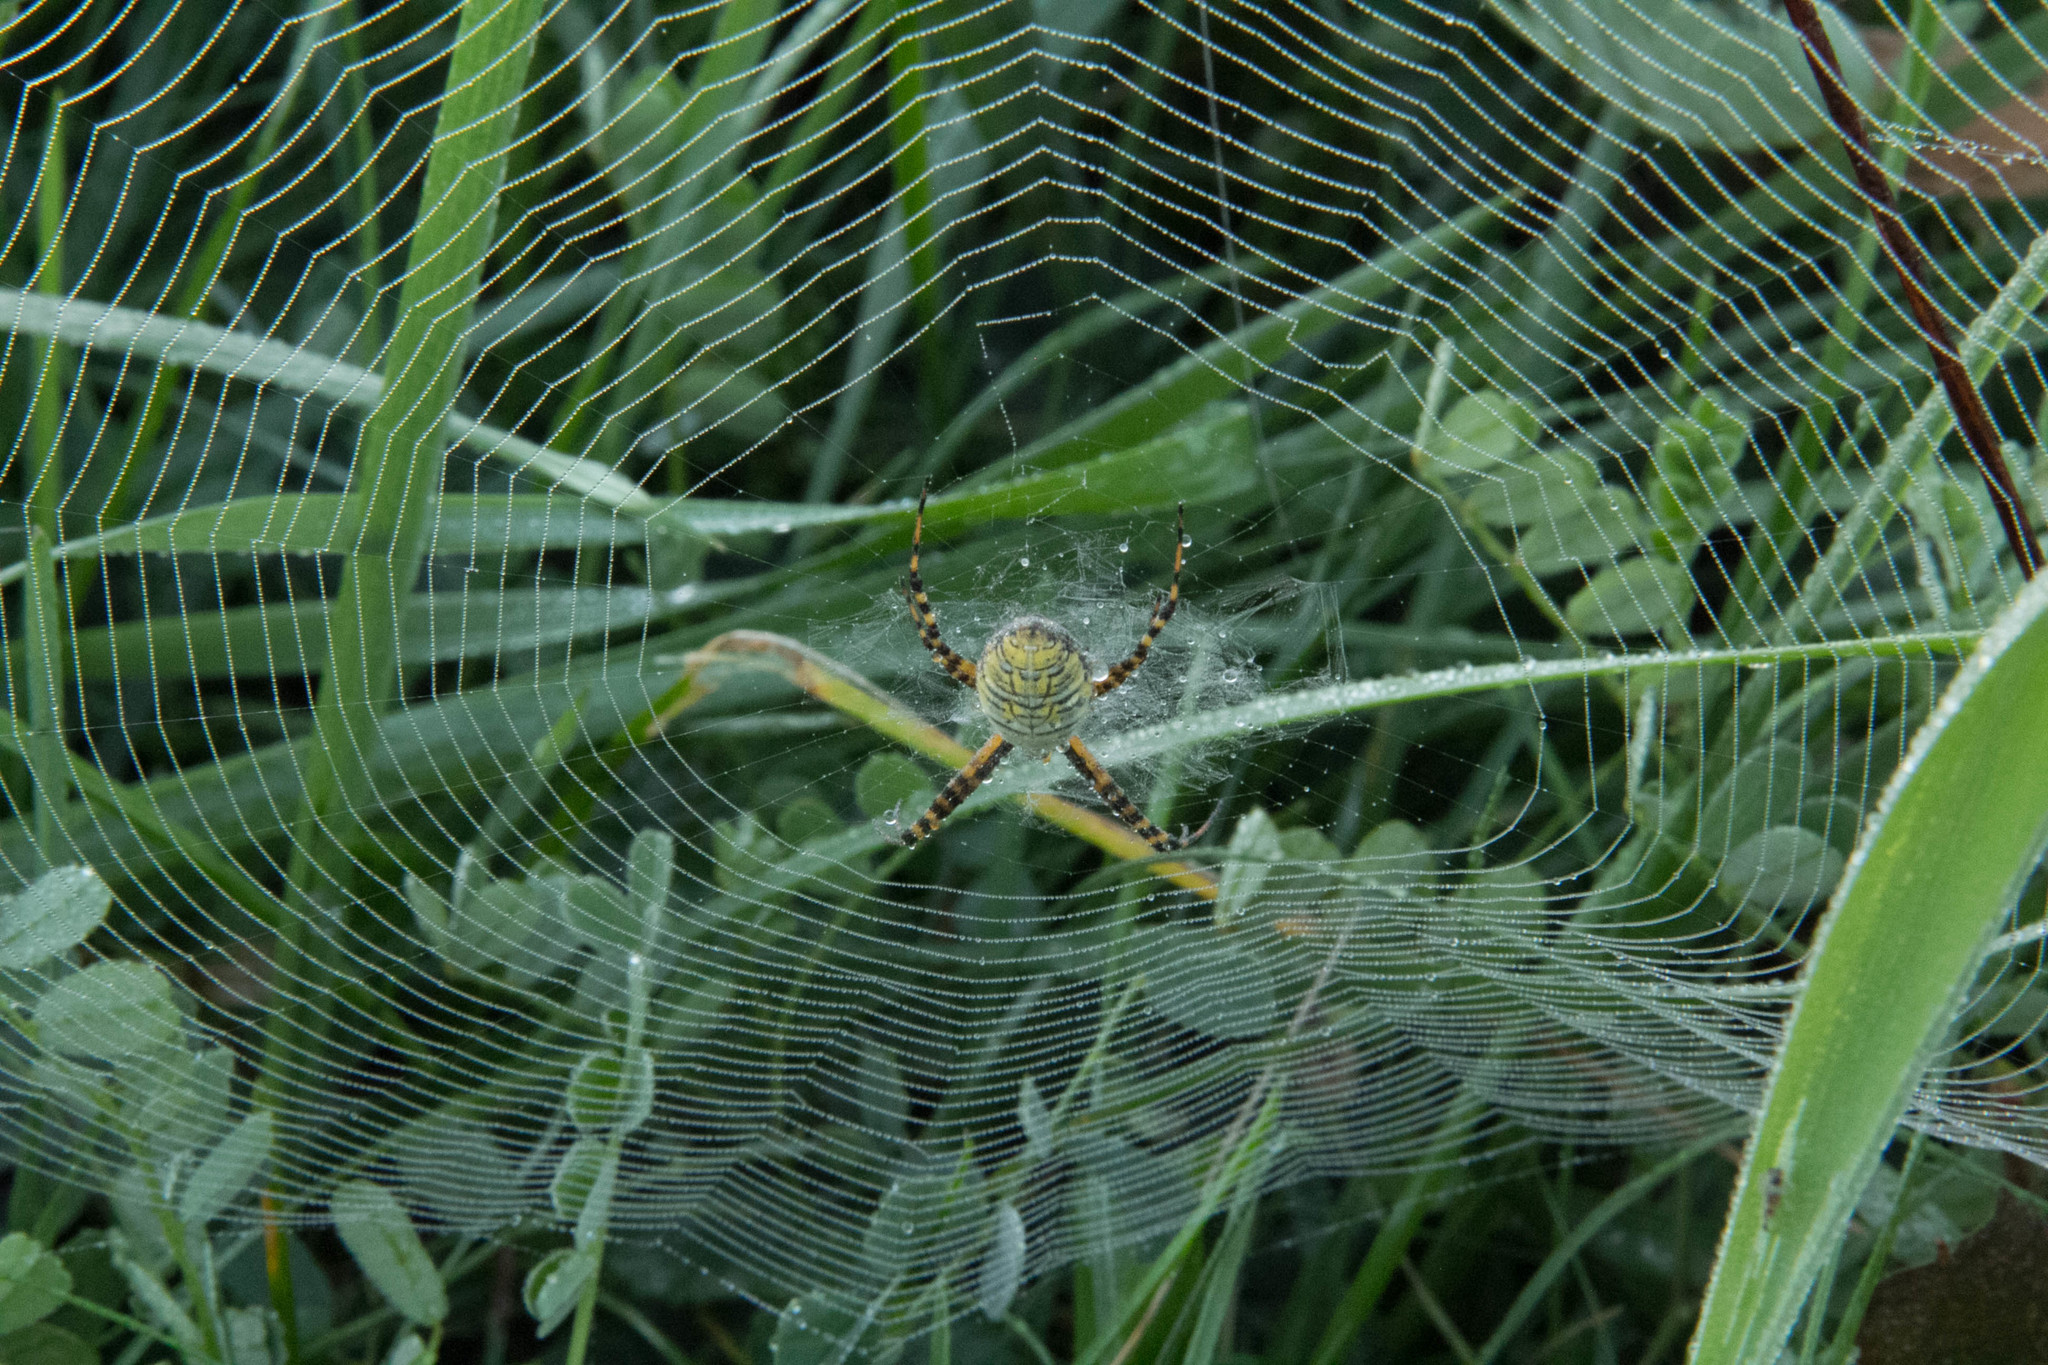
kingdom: Animalia
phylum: Arthropoda
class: Arachnida
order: Araneae
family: Araneidae
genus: Argiope
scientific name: Argiope trifasciata
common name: Banded garden spider
